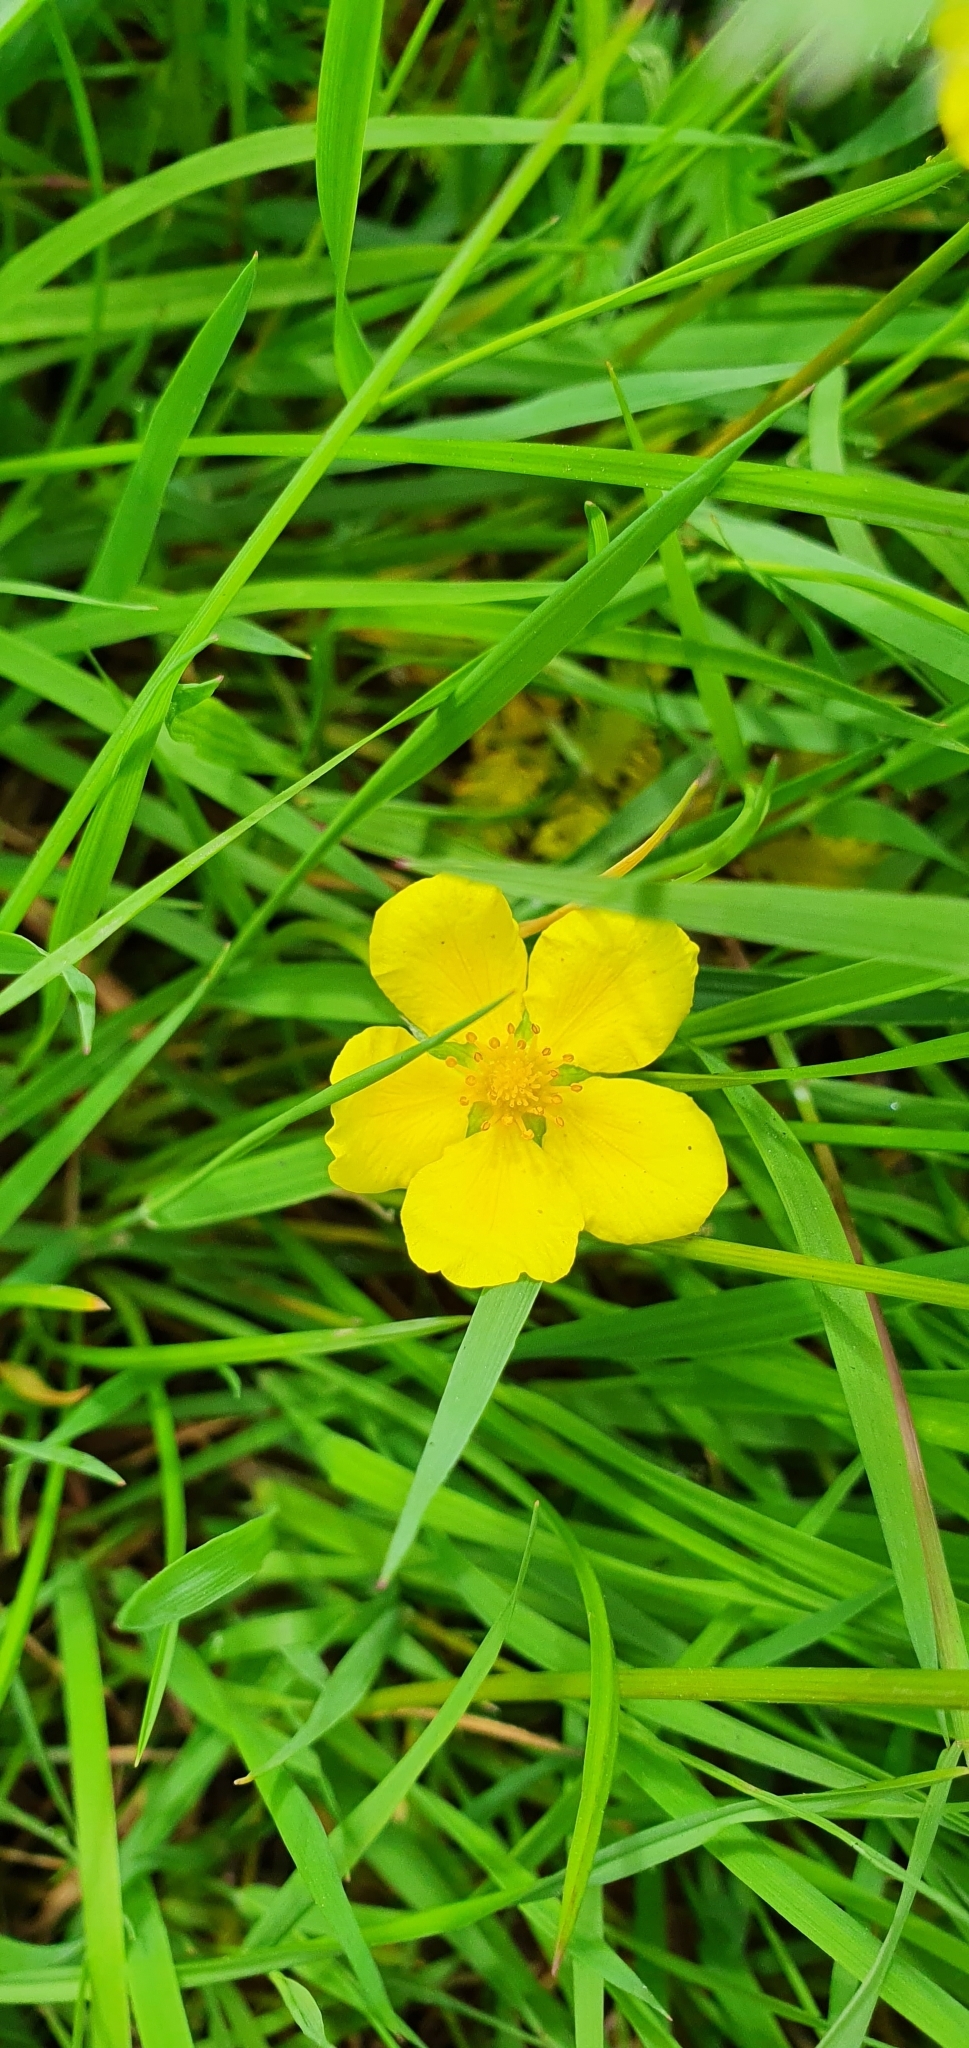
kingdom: Plantae
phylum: Tracheophyta
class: Magnoliopsida
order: Rosales
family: Rosaceae
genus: Argentina
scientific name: Argentina anserina
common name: Common silverweed
